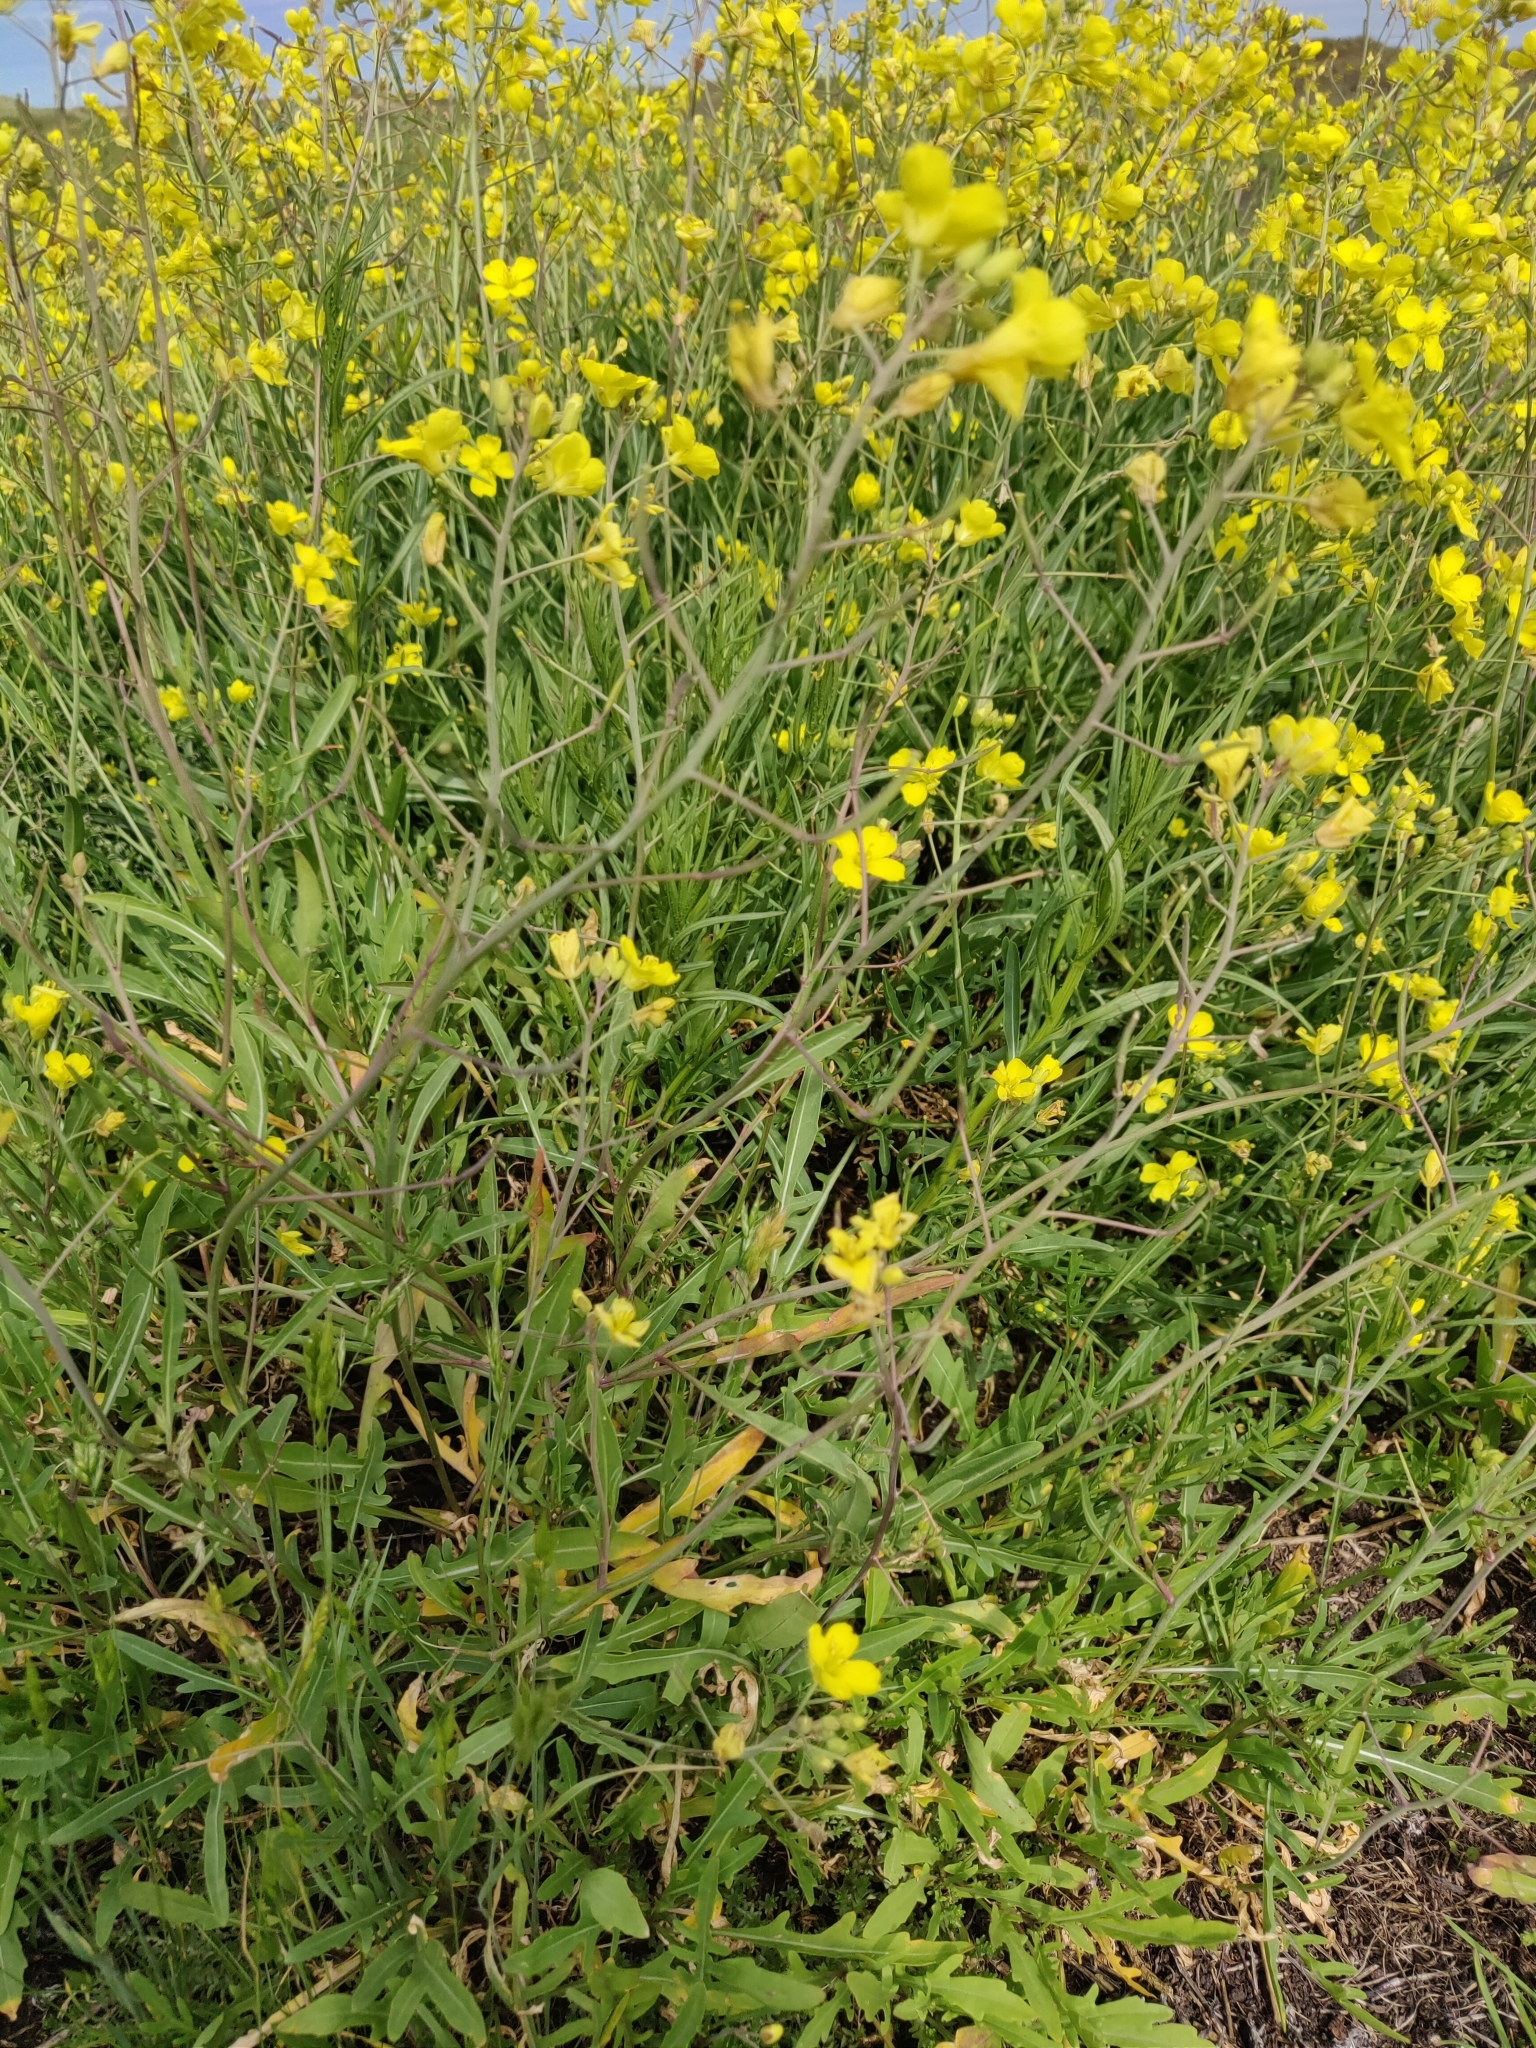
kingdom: Plantae
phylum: Tracheophyta
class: Magnoliopsida
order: Brassicales
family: Brassicaceae
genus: Diplotaxis
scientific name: Diplotaxis tenuifolia
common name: Perennial wall-rocket
